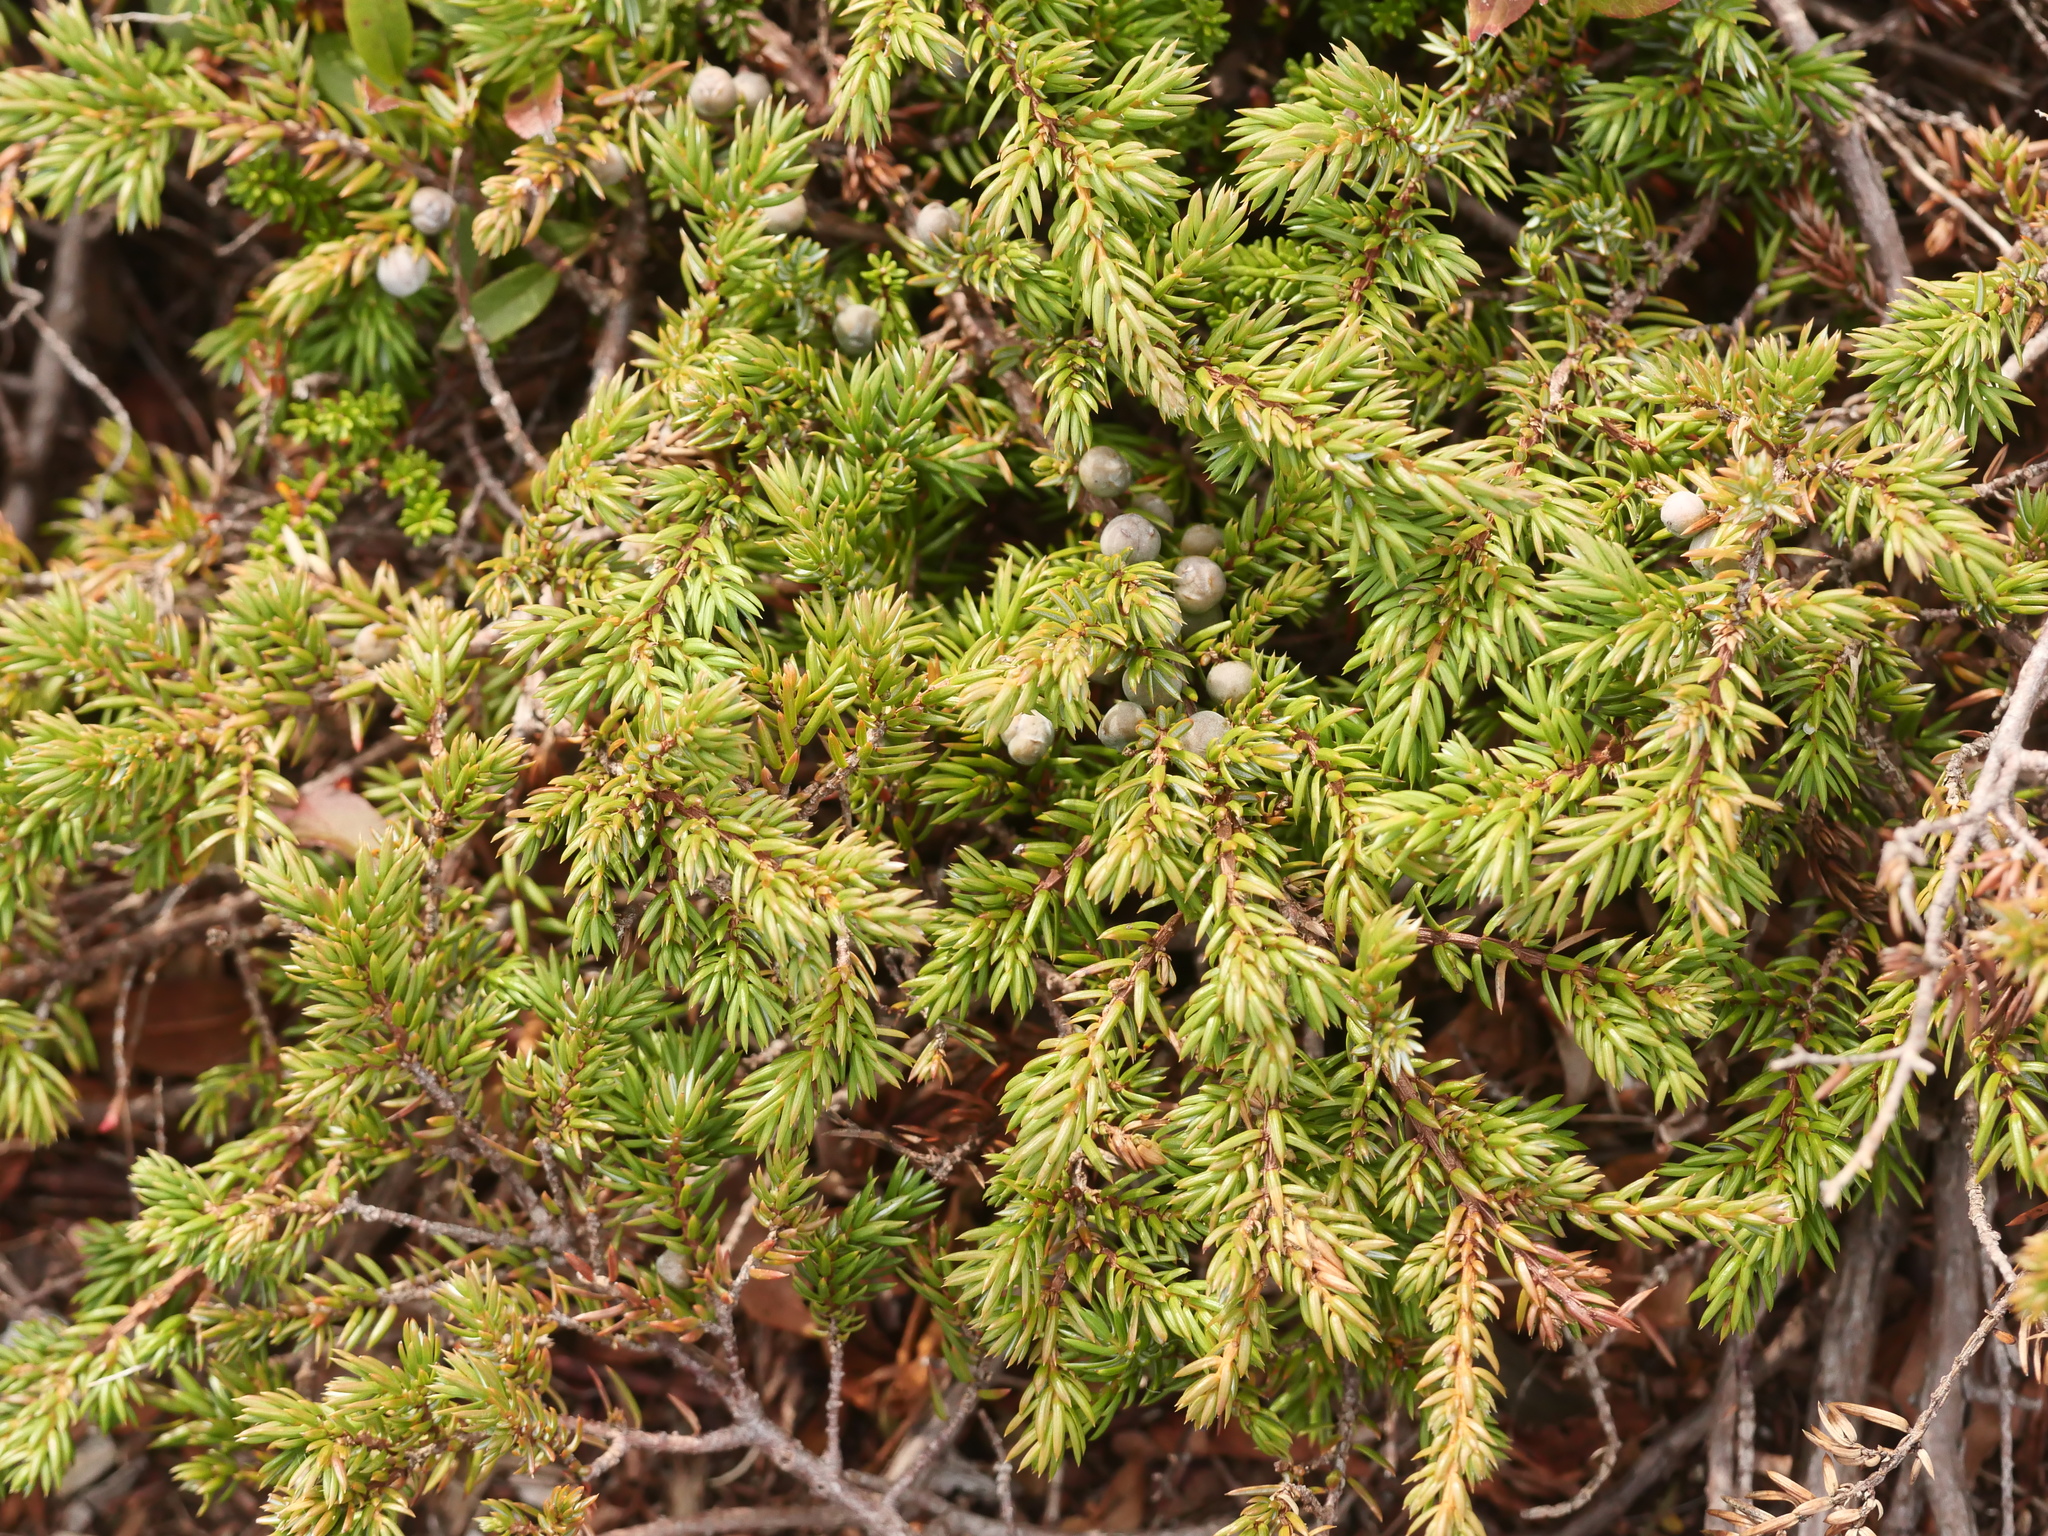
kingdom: Plantae
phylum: Tracheophyta
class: Pinopsida
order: Pinales
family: Cupressaceae
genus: Juniperus
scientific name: Juniperus communis
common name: Common juniper
